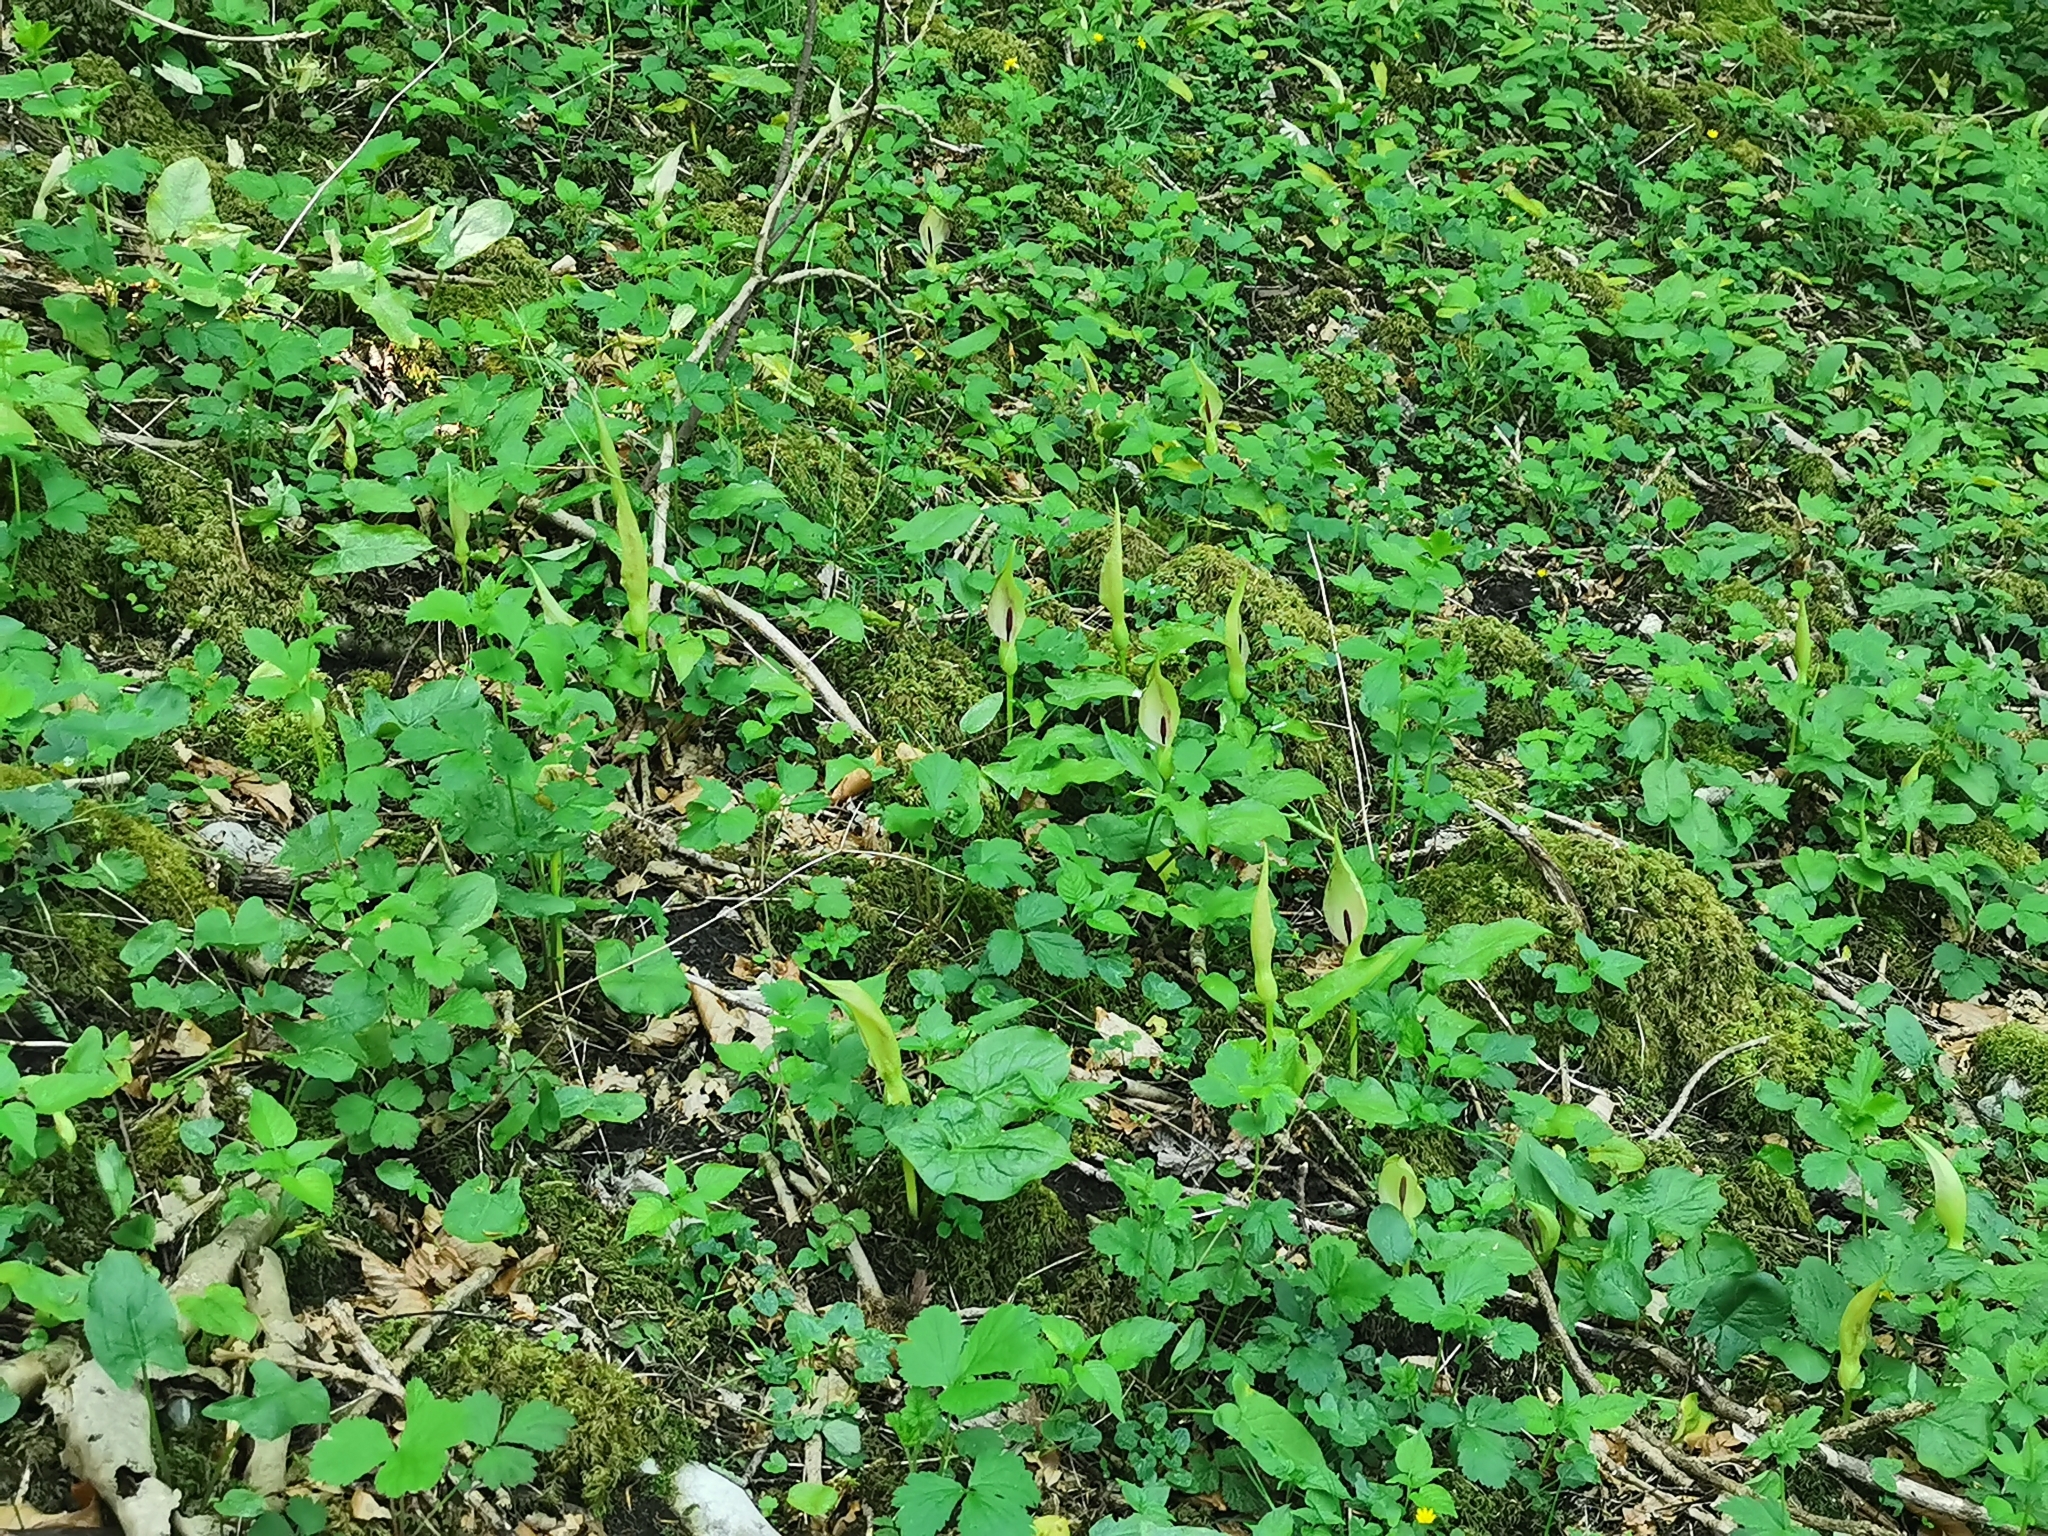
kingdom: Plantae
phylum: Tracheophyta
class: Liliopsida
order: Alismatales
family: Araceae
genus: Arum
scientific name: Arum maculatum
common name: Lords-and-ladies
